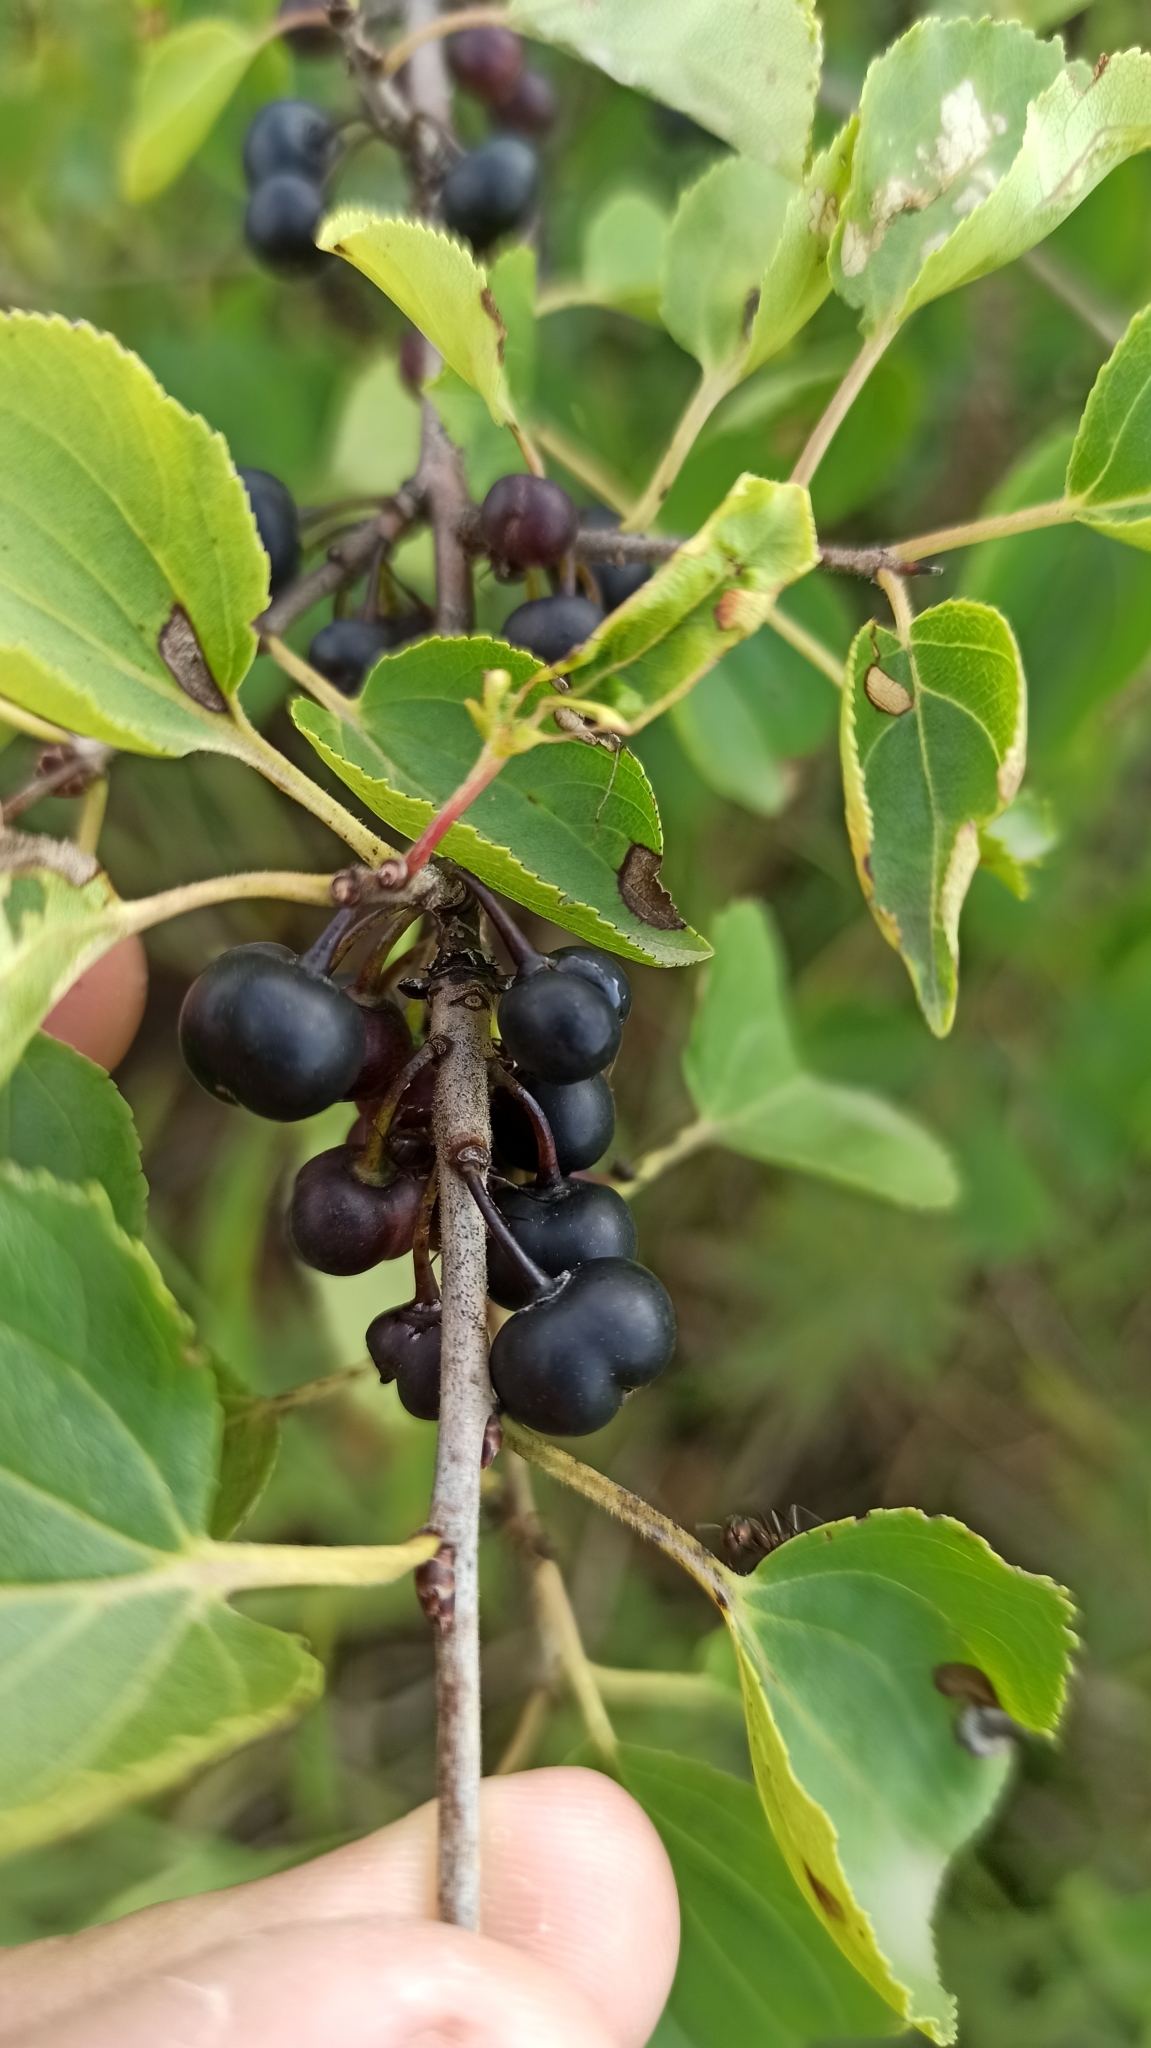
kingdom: Plantae
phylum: Tracheophyta
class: Magnoliopsida
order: Rosales
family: Rhamnaceae
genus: Rhamnus
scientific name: Rhamnus cathartica
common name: Common buckthorn
